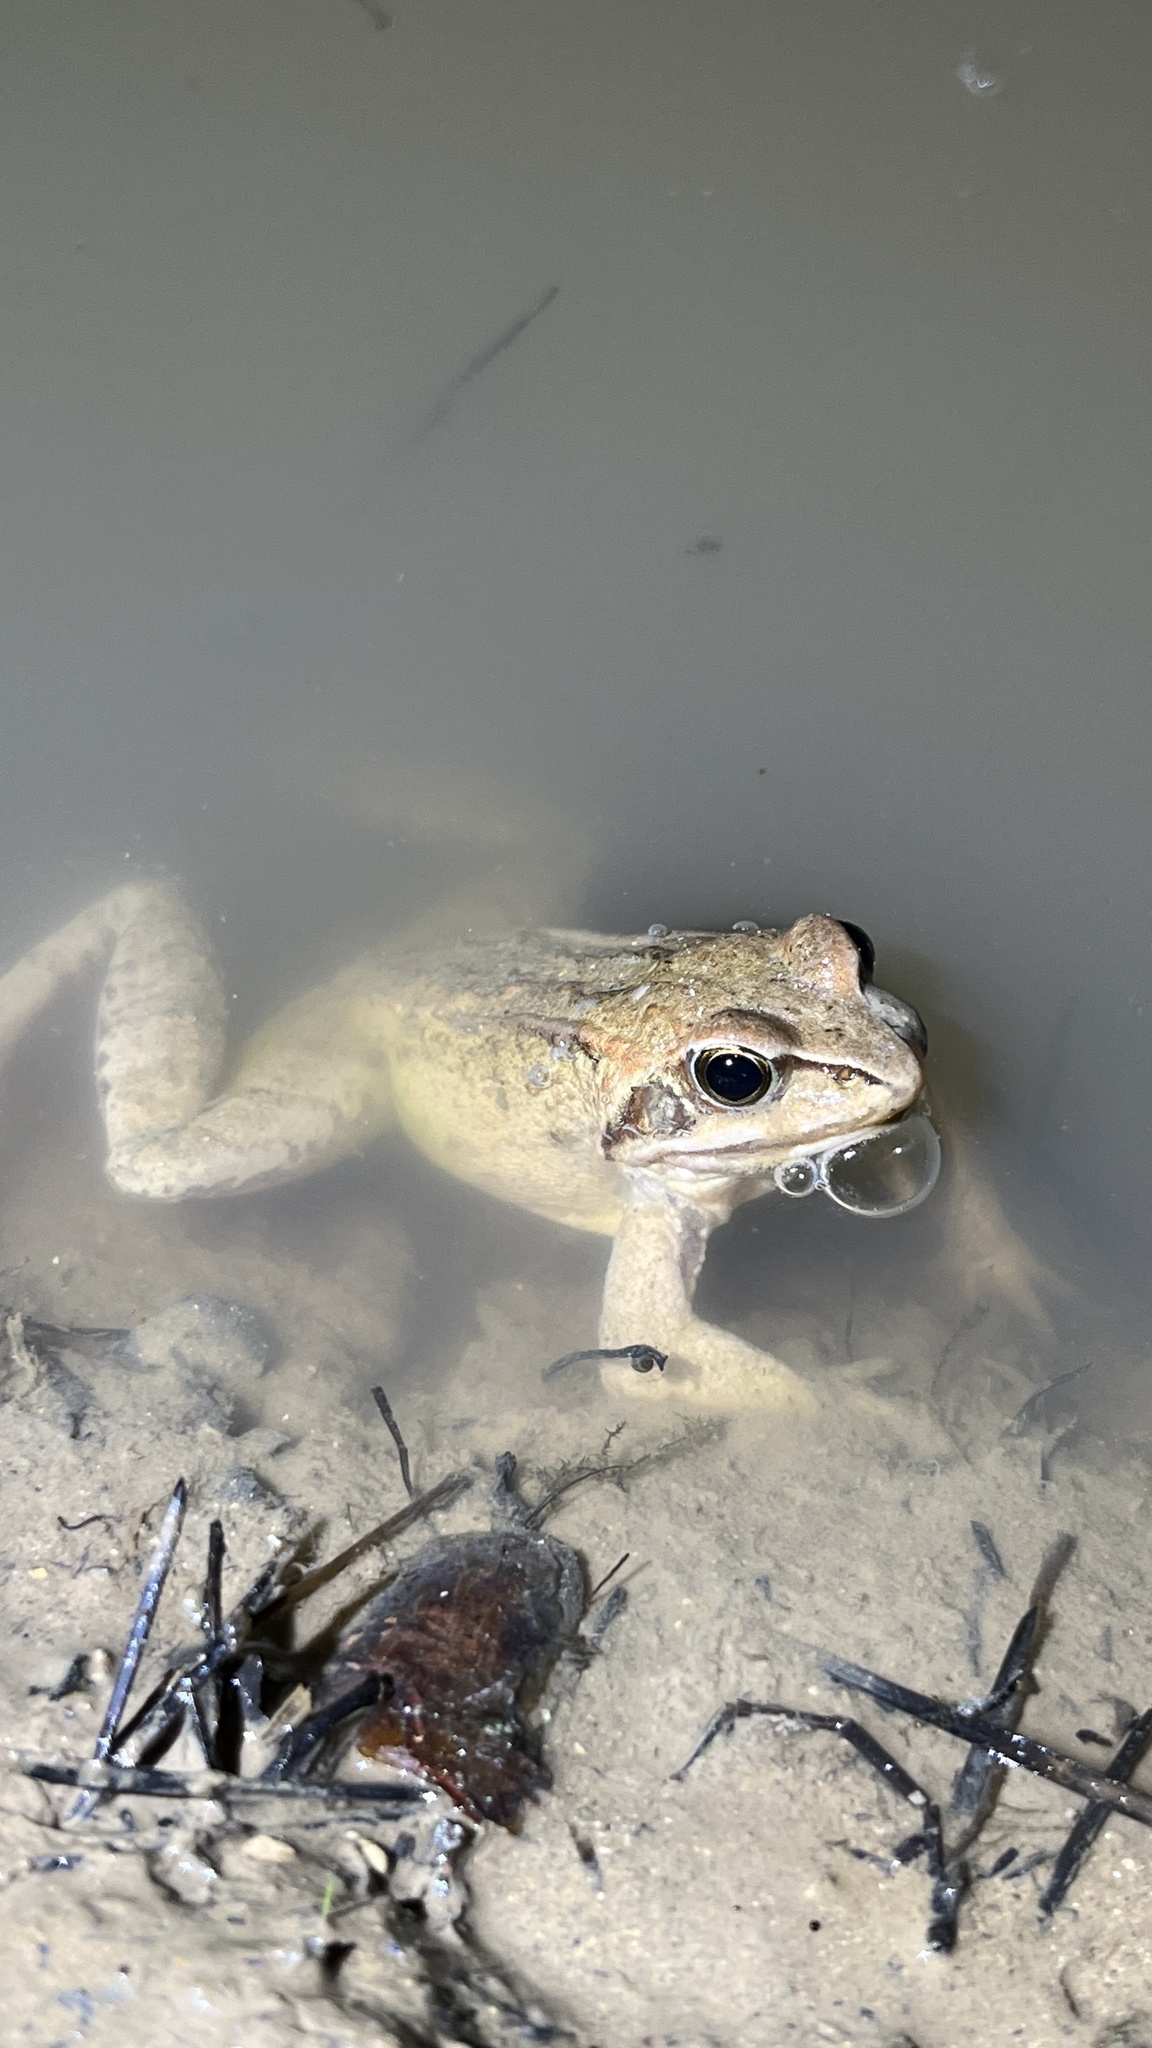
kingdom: Animalia
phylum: Chordata
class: Amphibia
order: Anura
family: Ranidae
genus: Rana
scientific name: Rana arvalis
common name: Moor frog
